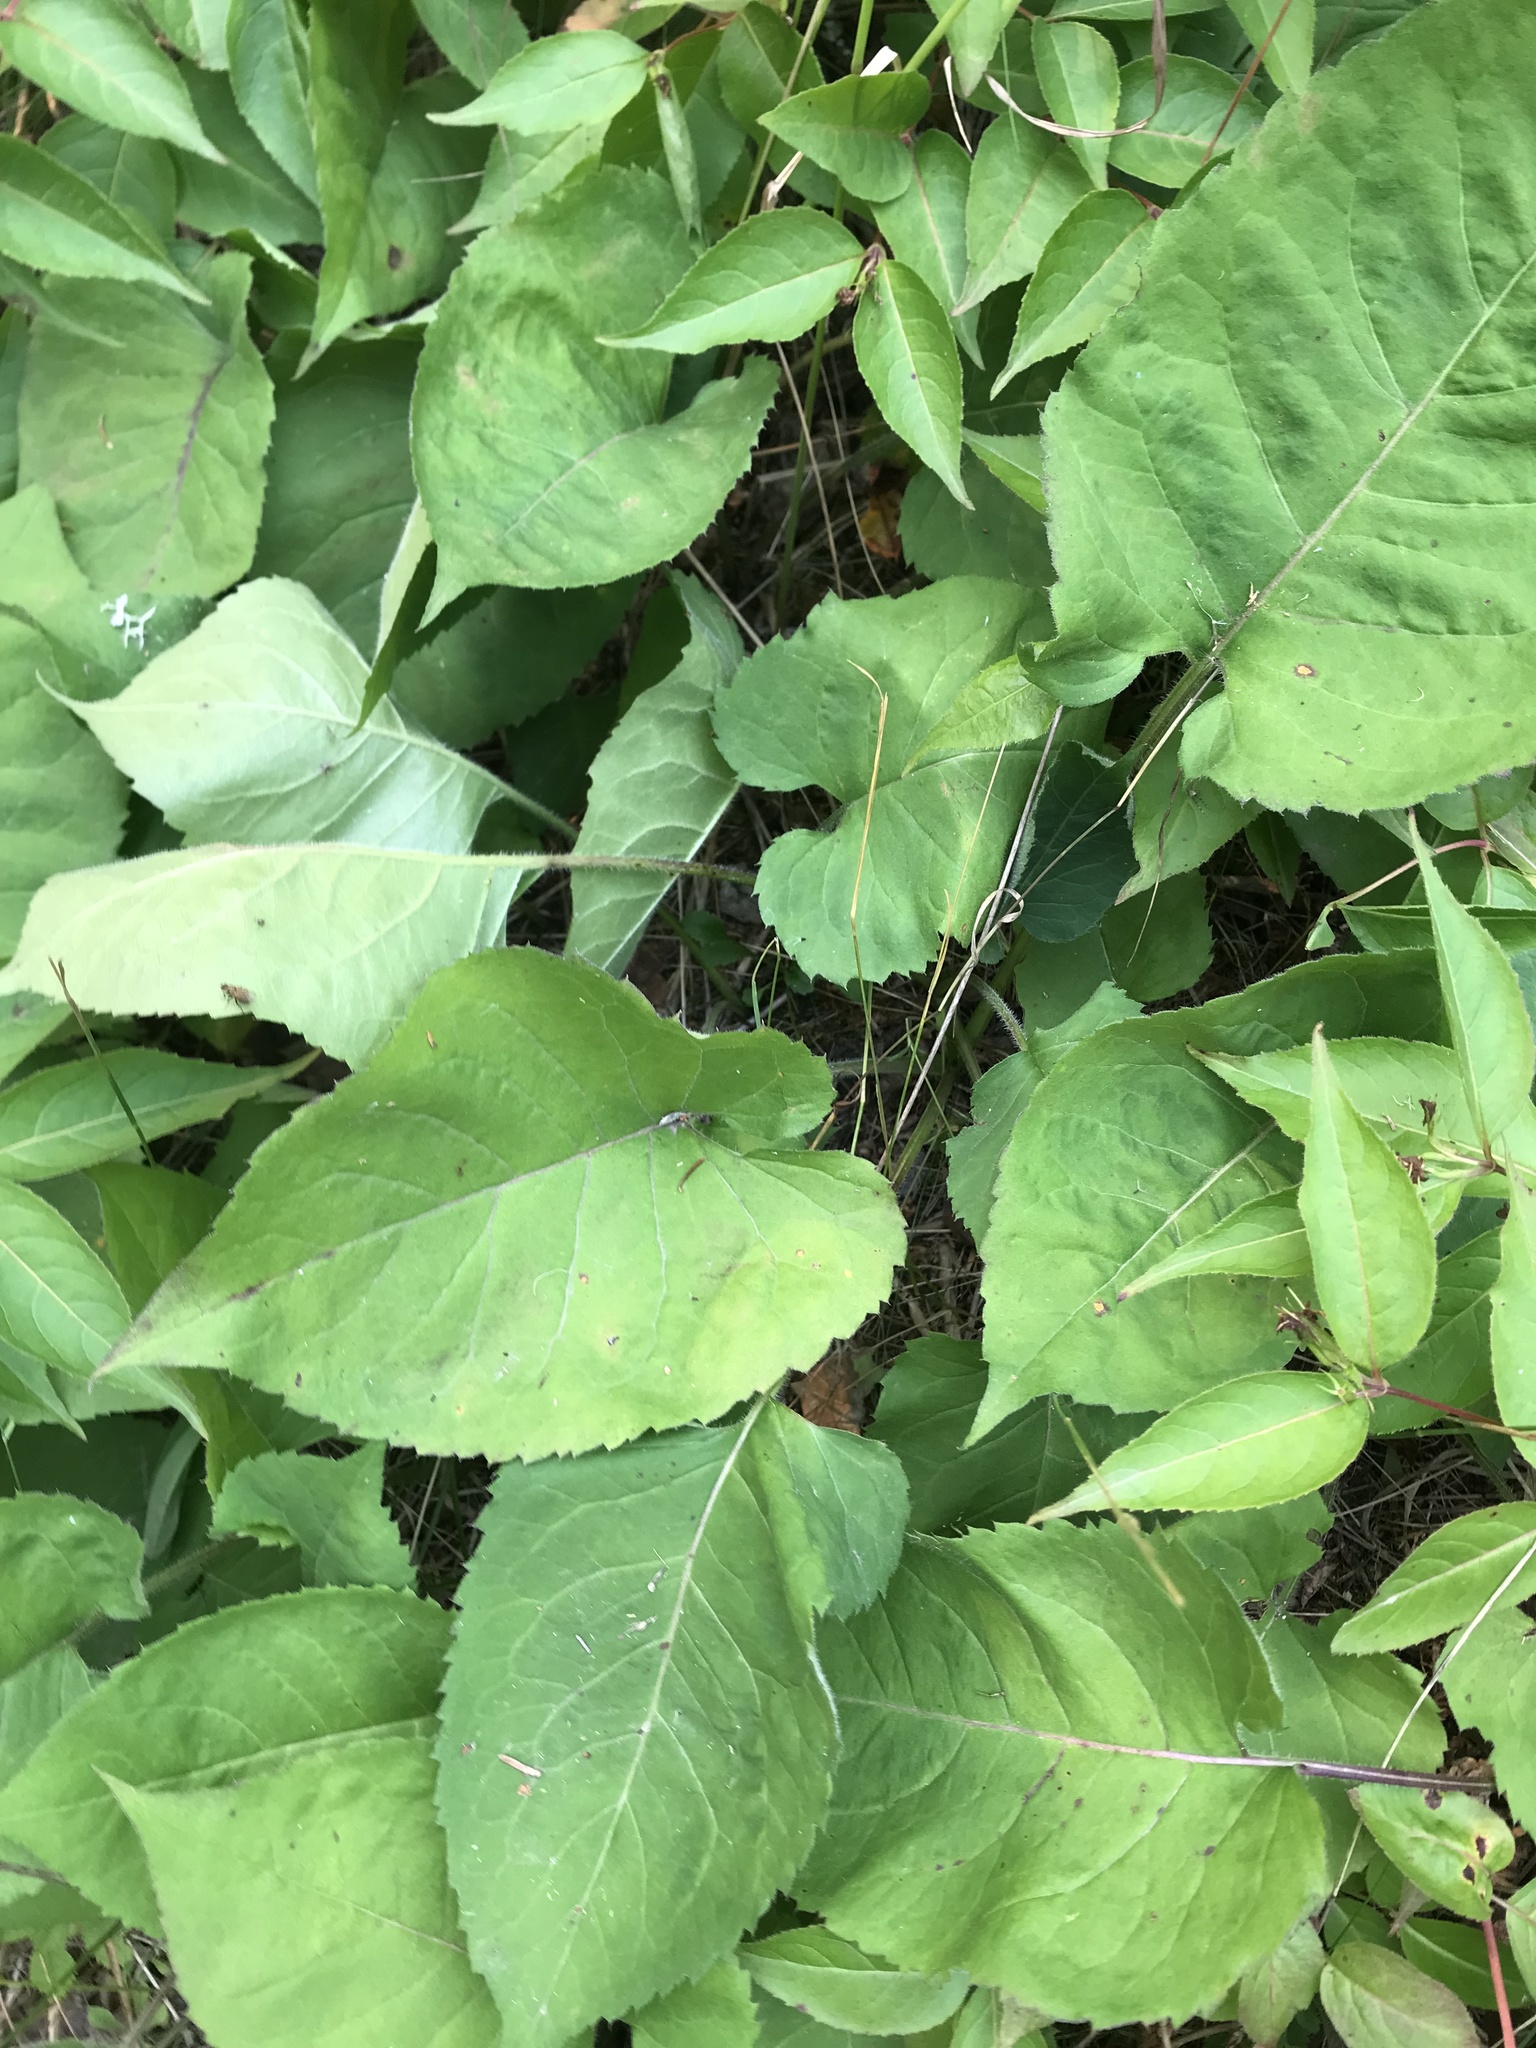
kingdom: Plantae
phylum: Tracheophyta
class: Magnoliopsida
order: Asterales
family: Asteraceae
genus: Eurybia
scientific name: Eurybia macrophylla
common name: Big-leaved aster
